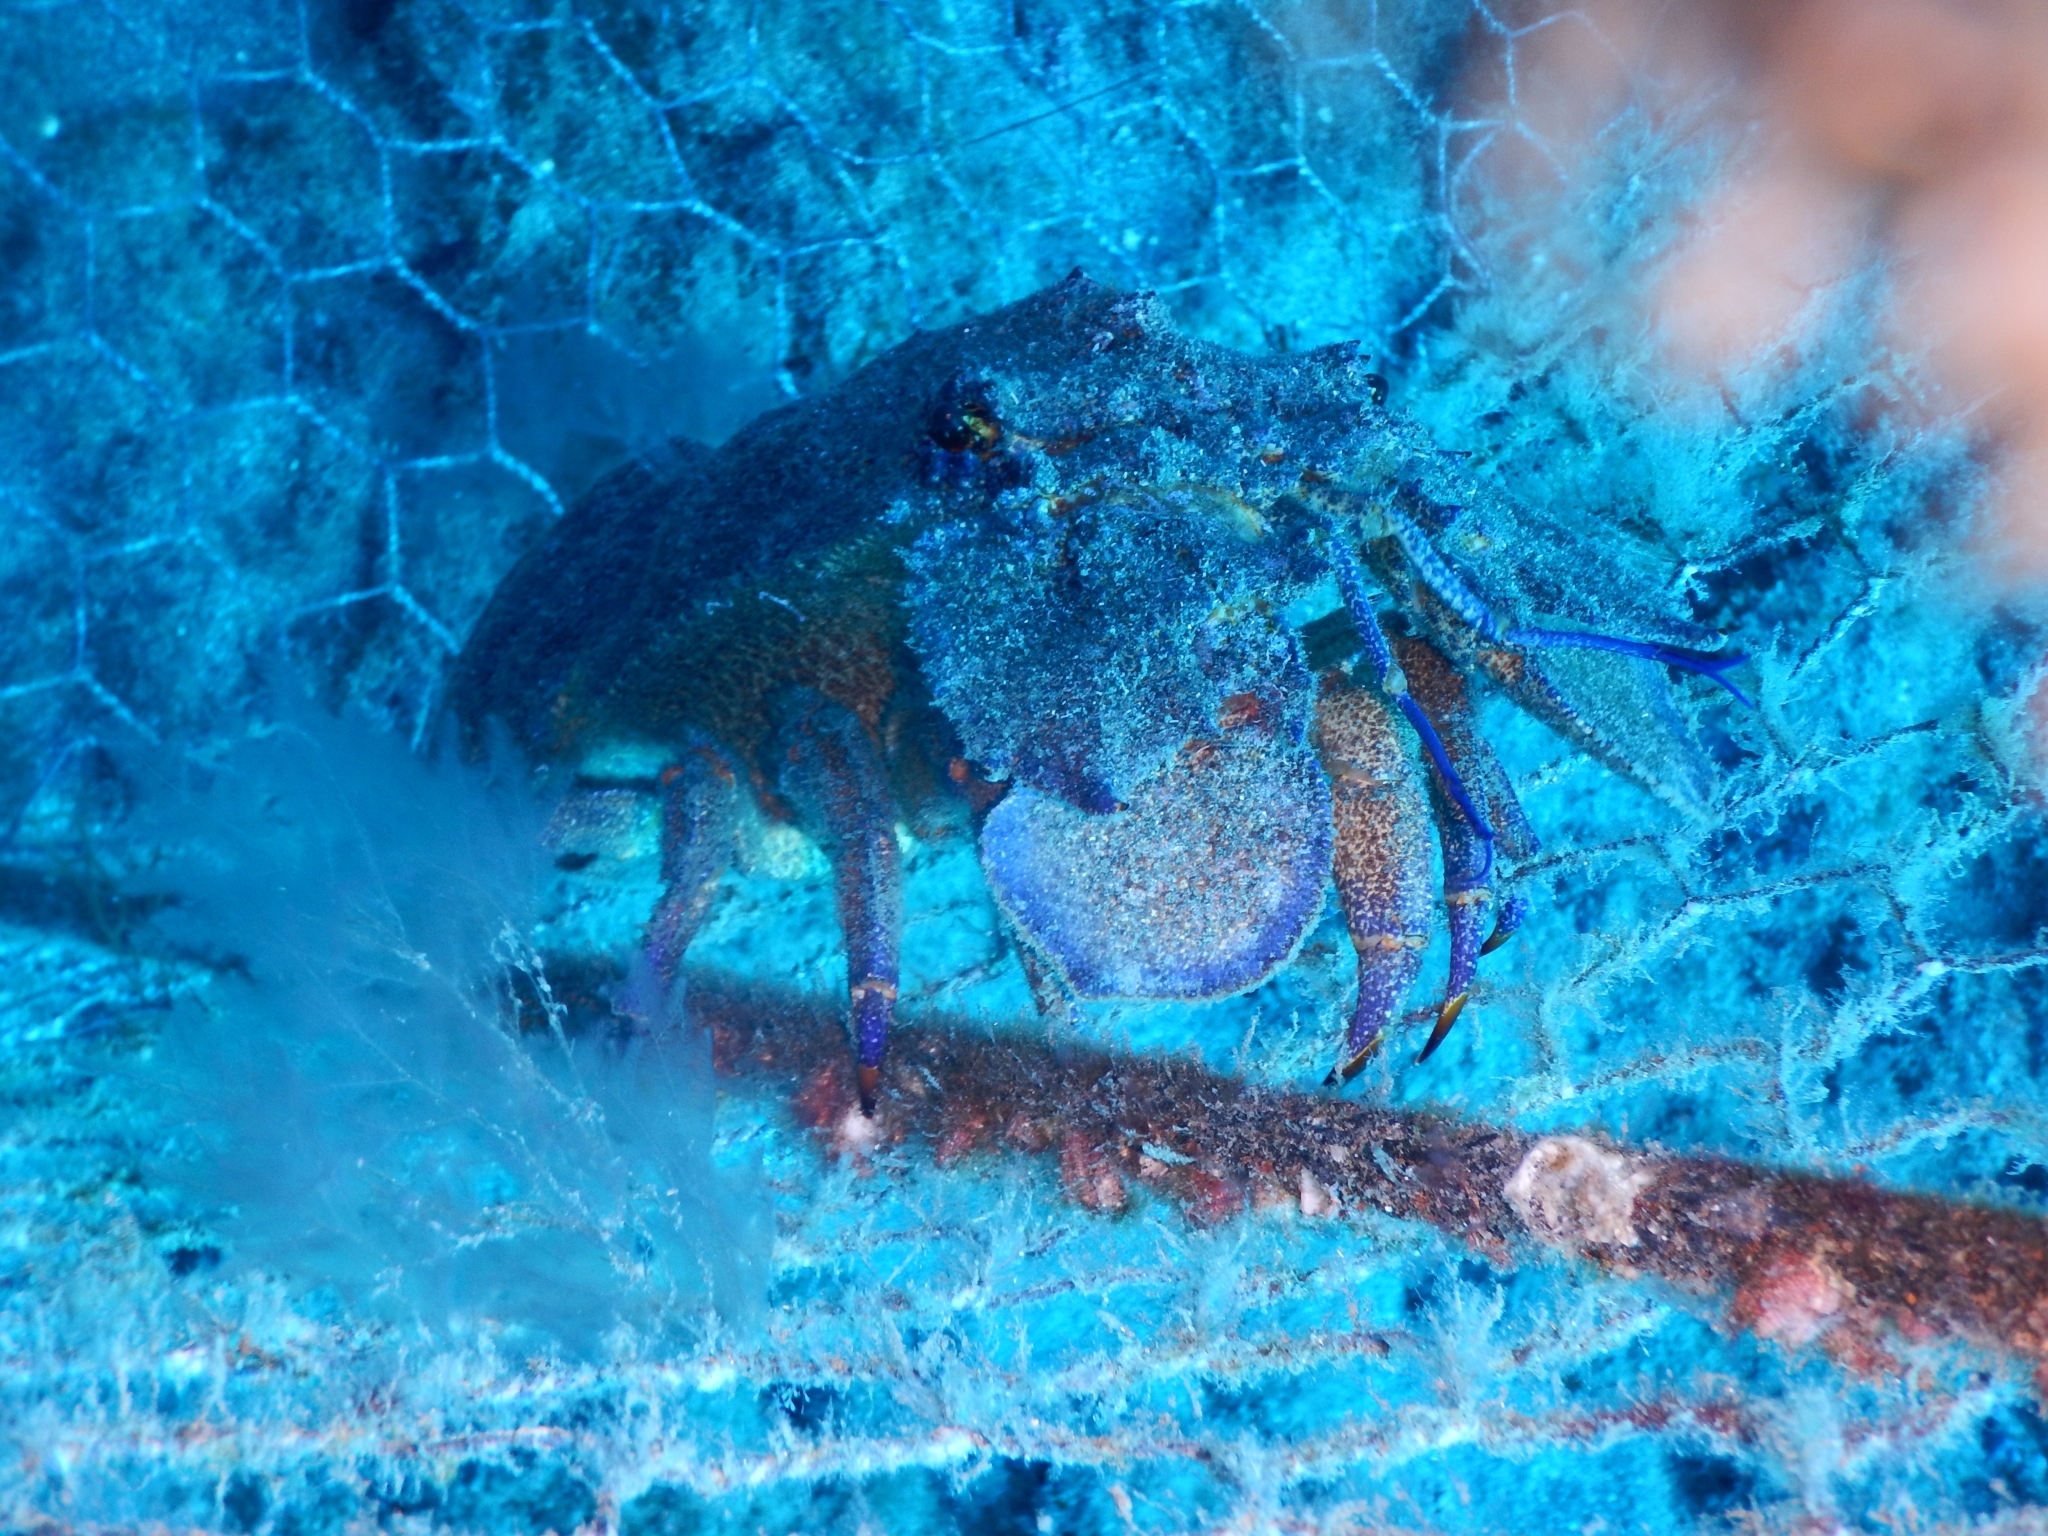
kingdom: Animalia
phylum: Arthropoda
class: Malacostraca
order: Decapoda
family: Scyllaridae
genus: Scyllarides
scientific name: Scyllarides latus
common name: Mediterranean slipper lobster
